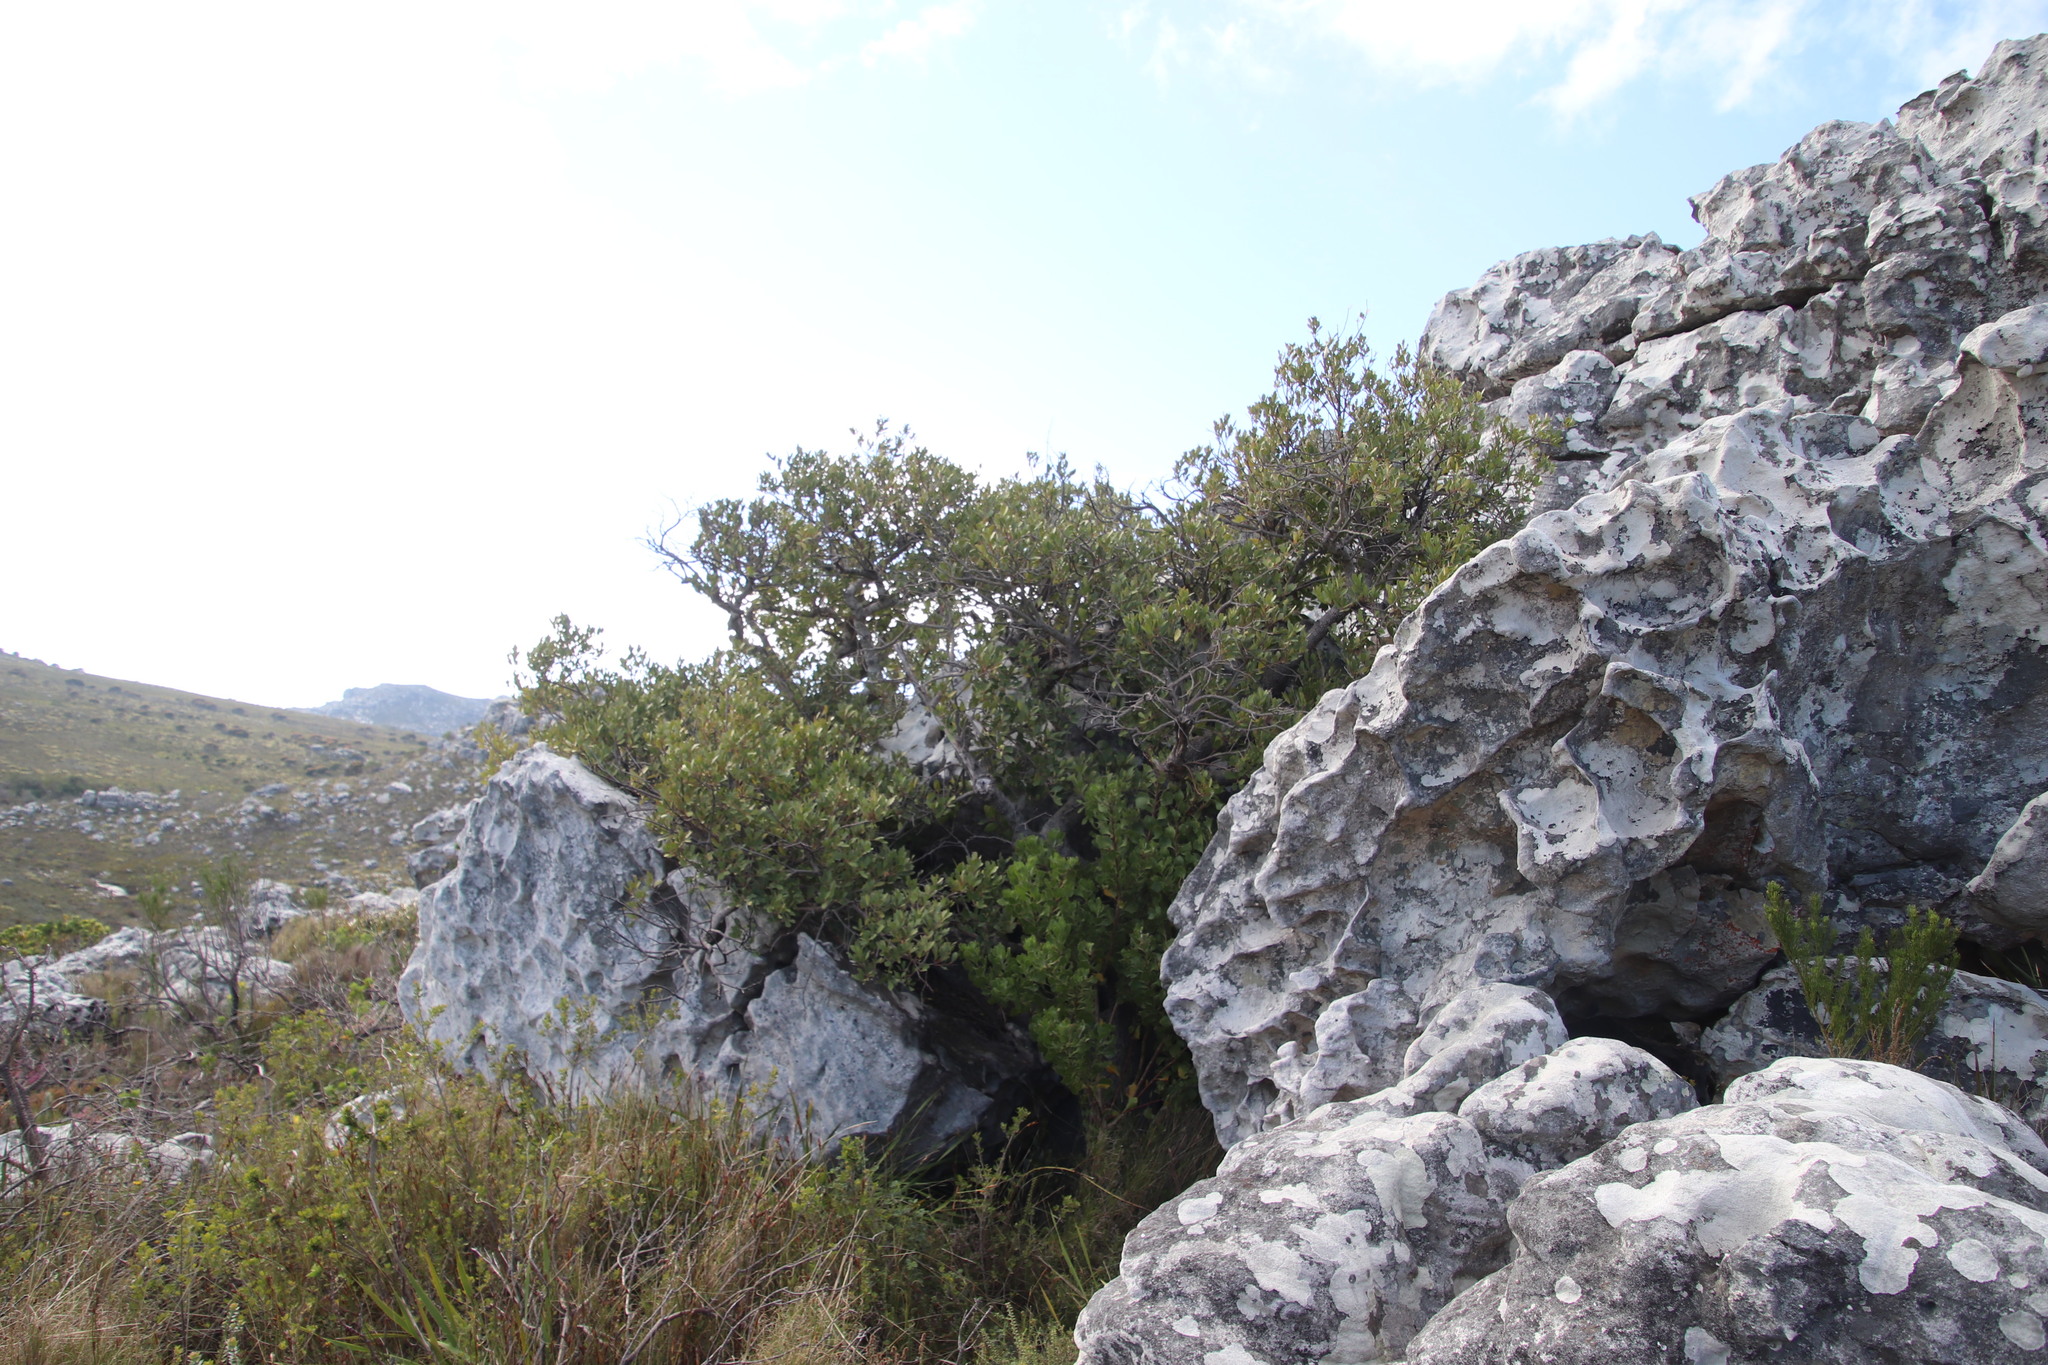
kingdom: Plantae
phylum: Tracheophyta
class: Magnoliopsida
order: Celastrales
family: Celastraceae
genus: Gymnosporia
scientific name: Gymnosporia laurina
